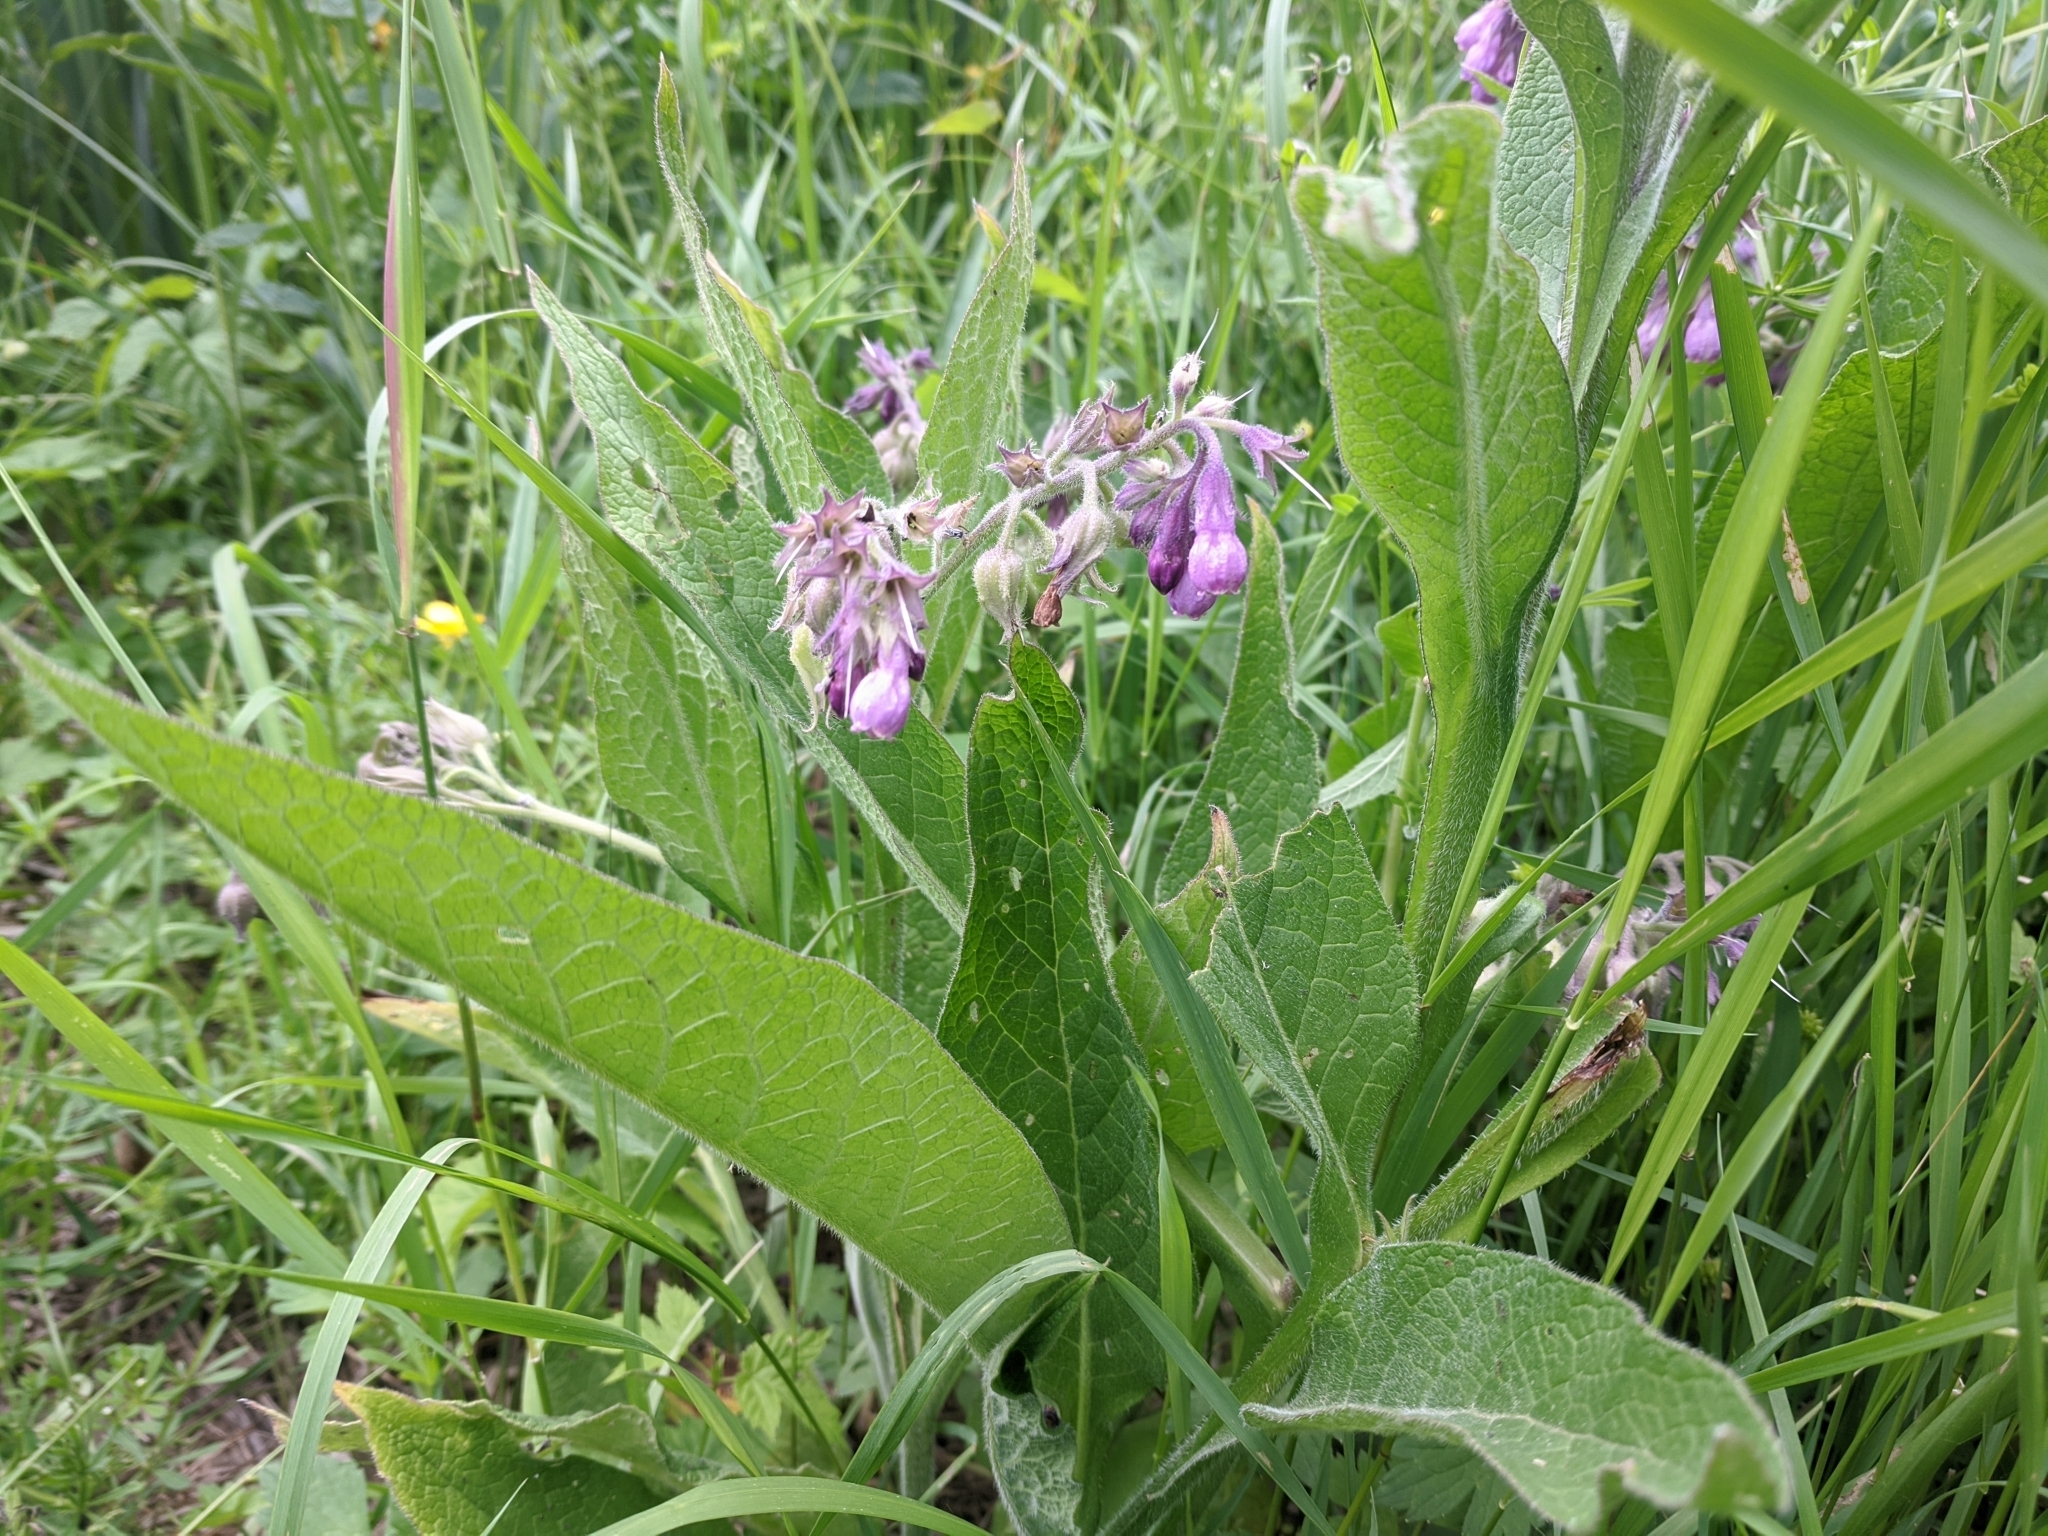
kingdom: Plantae
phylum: Tracheophyta
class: Magnoliopsida
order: Boraginales
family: Boraginaceae
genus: Symphytum
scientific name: Symphytum officinale
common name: Common comfrey
